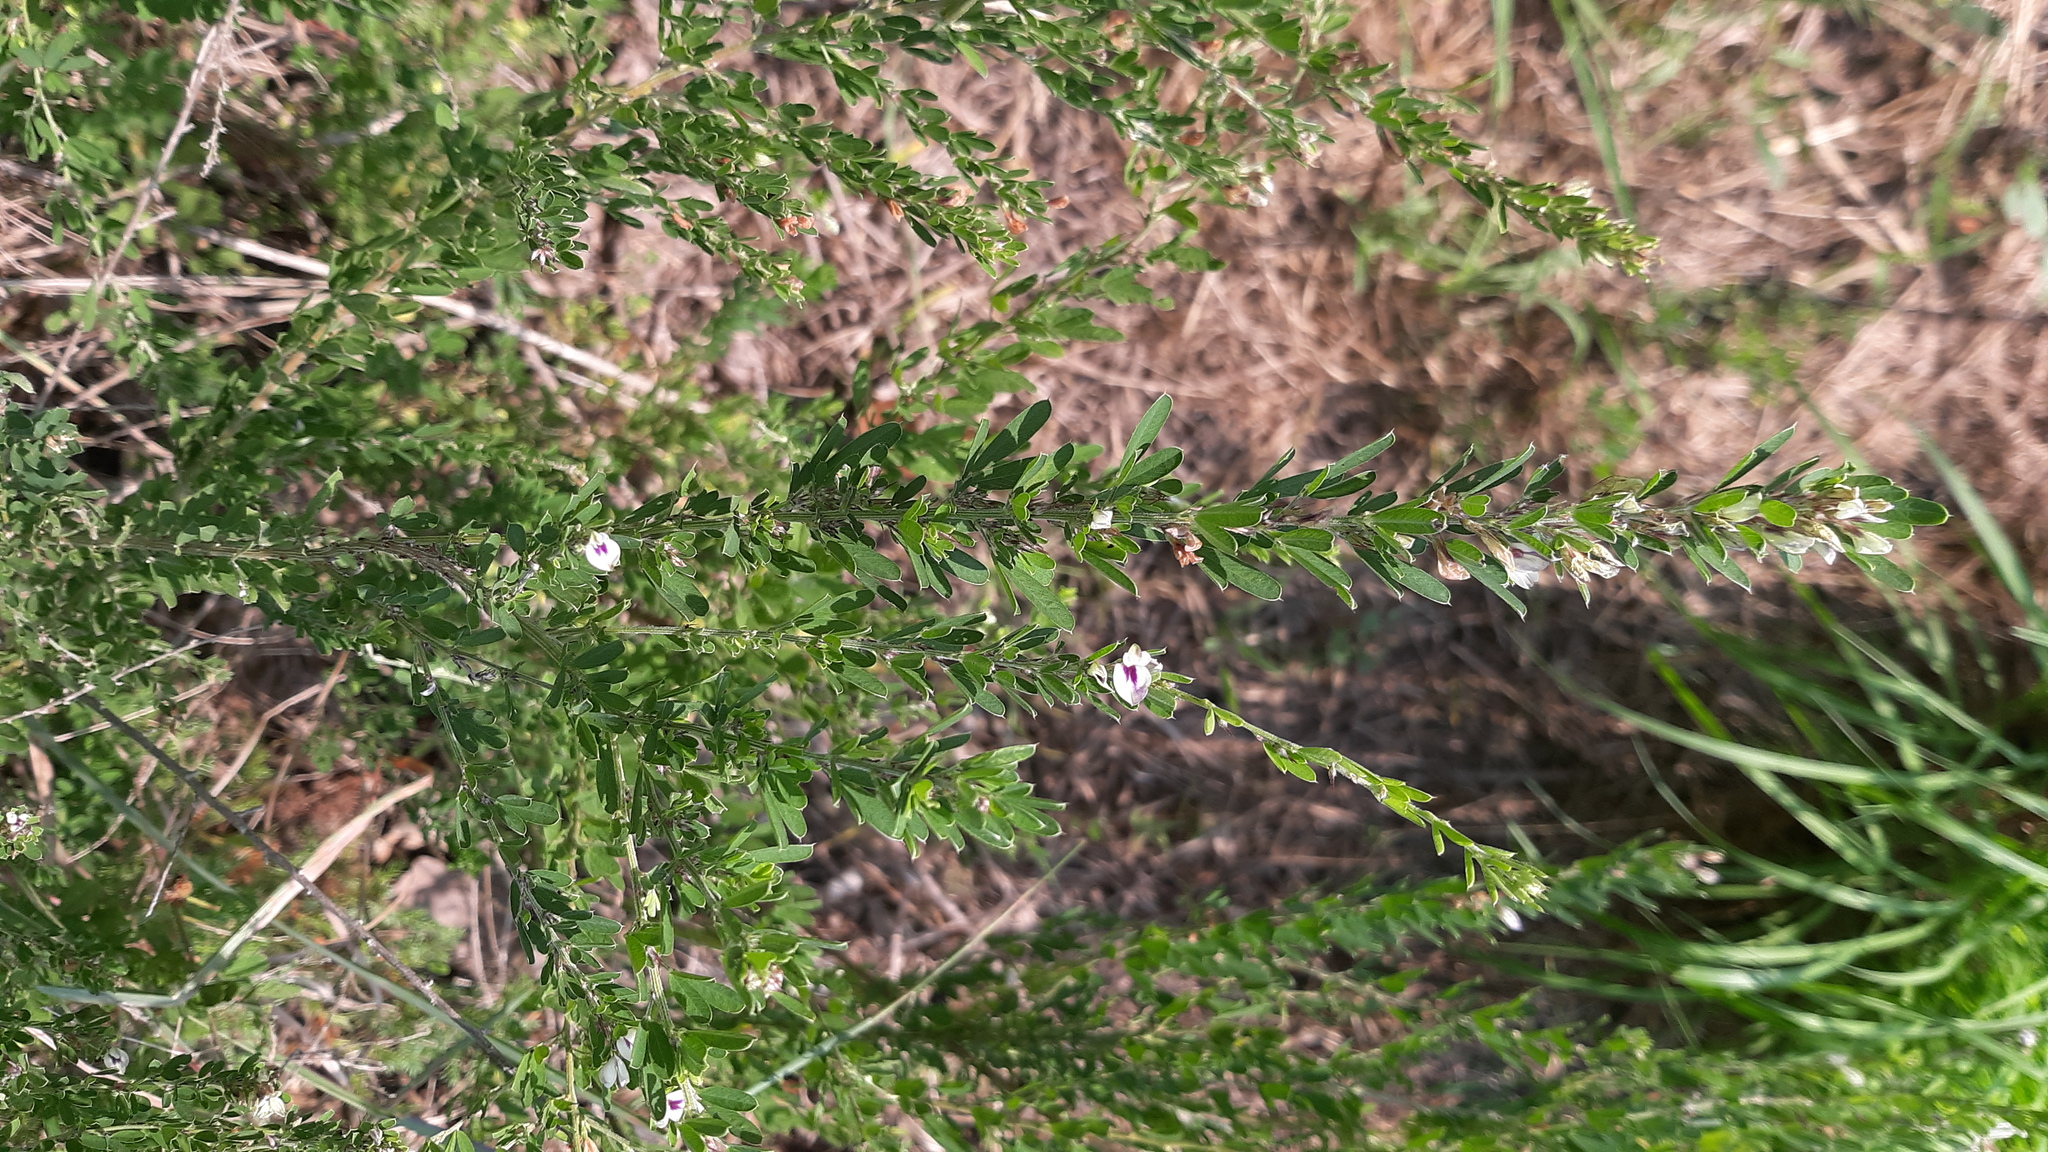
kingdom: Plantae
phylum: Tracheophyta
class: Magnoliopsida
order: Fabales
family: Fabaceae
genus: Lespedeza
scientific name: Lespedeza cuneata
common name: Chinese bush-clover
